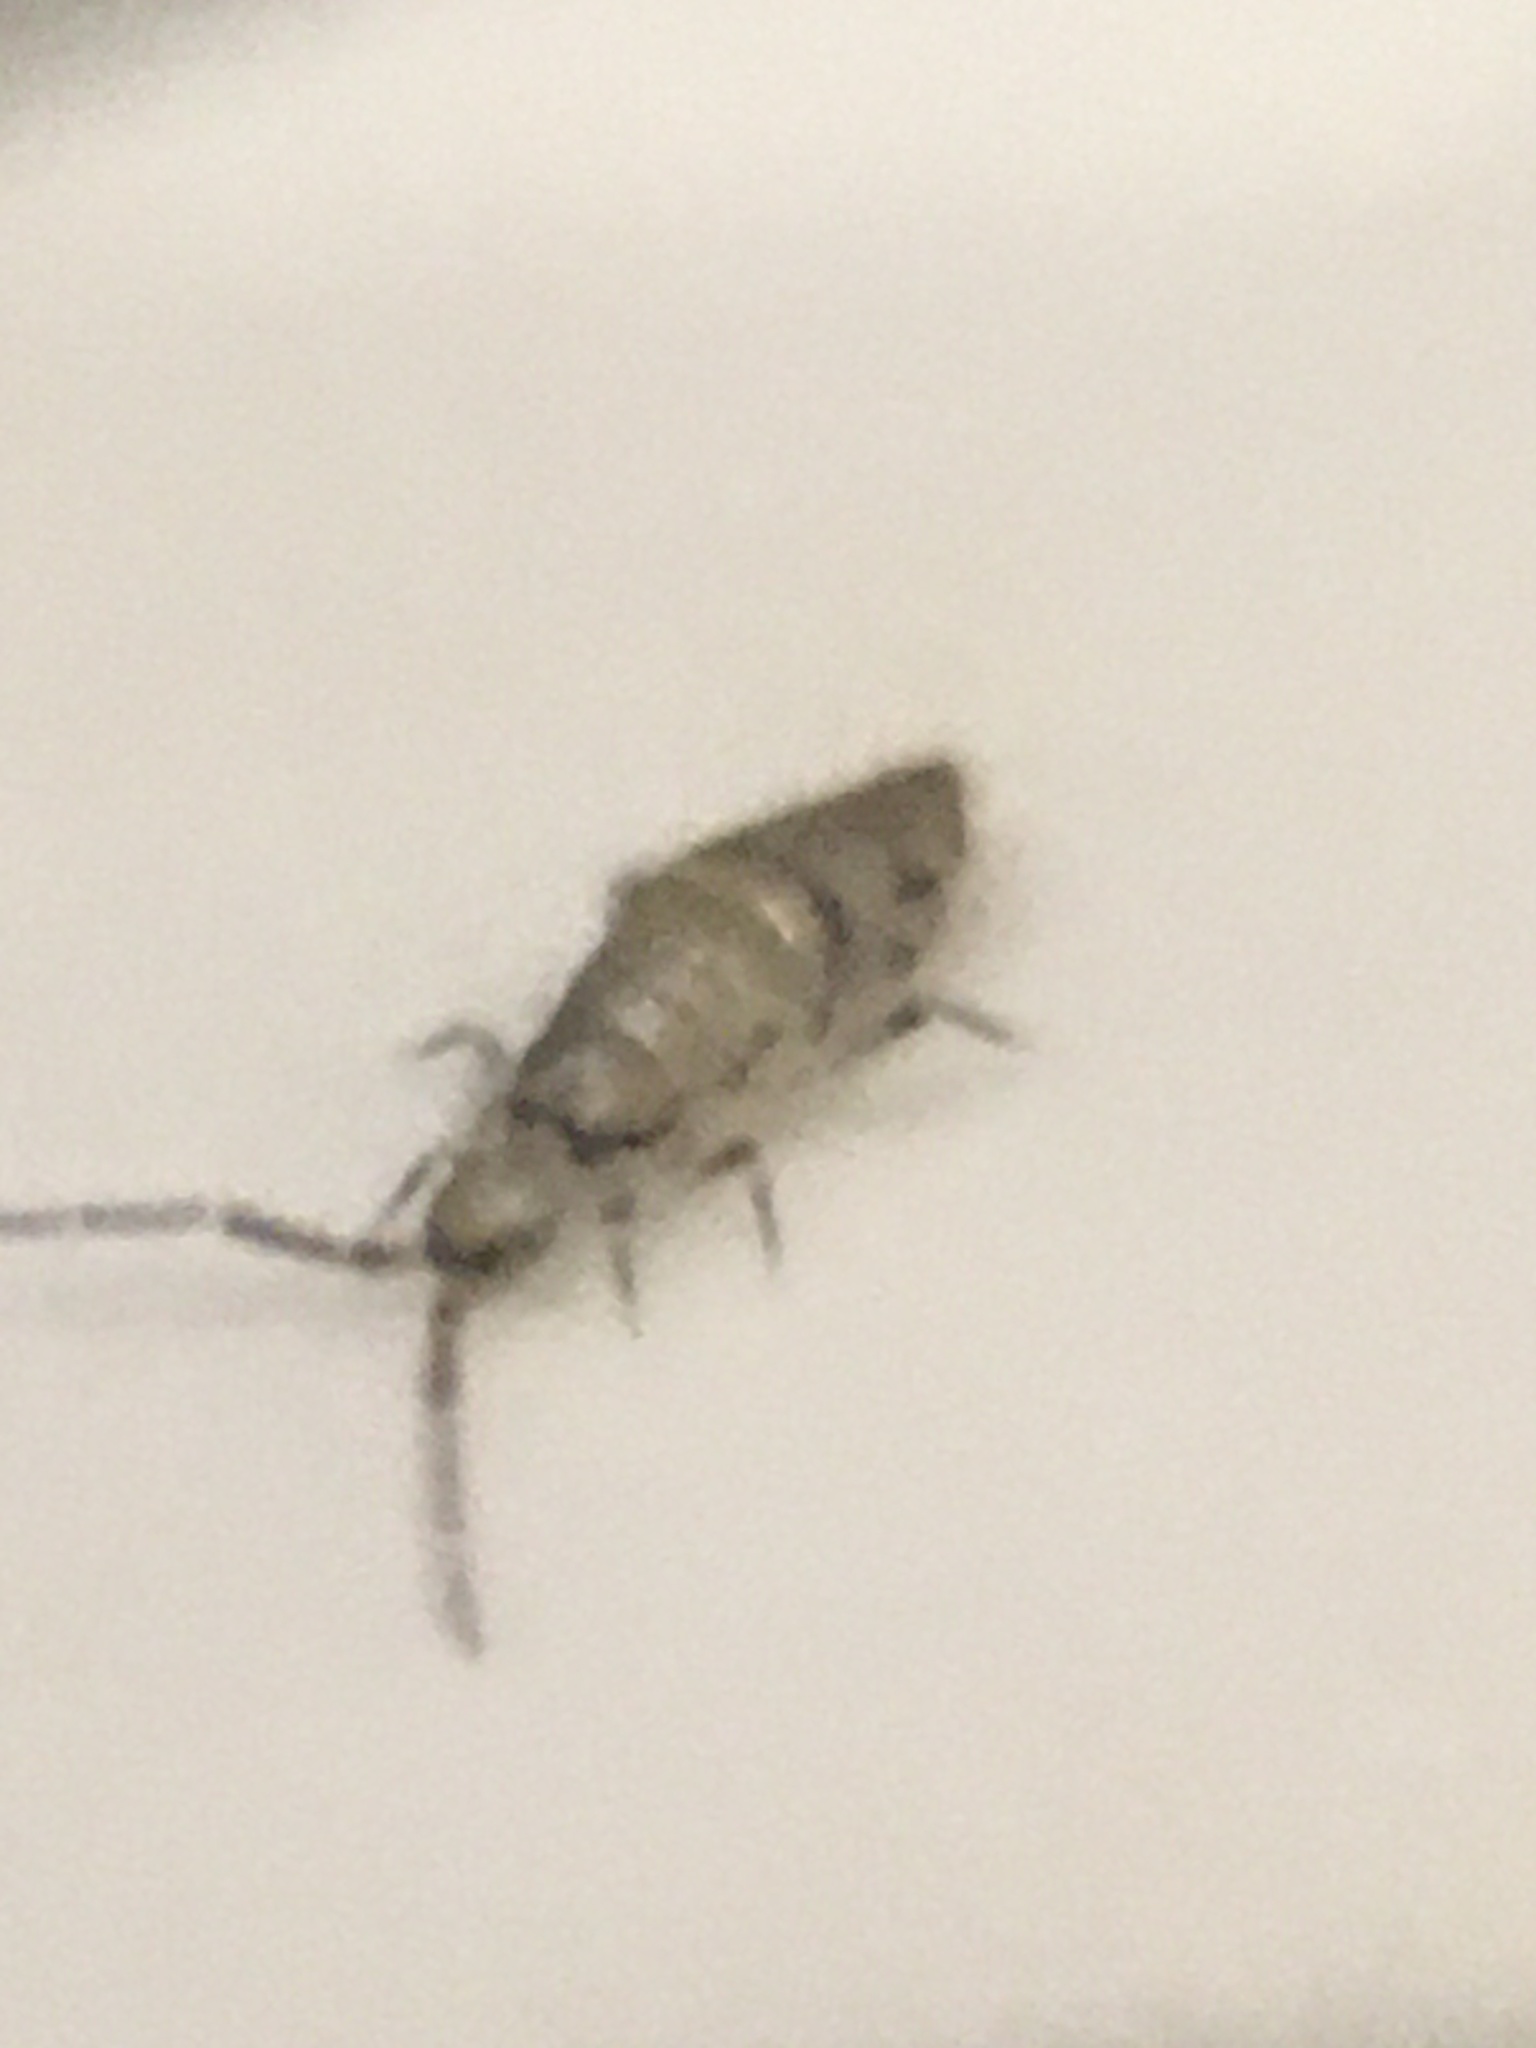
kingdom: Animalia
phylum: Arthropoda
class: Collembola
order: Entomobryomorpha
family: Entomobryidae
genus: Willowsia
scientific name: Willowsia nigromaculata
